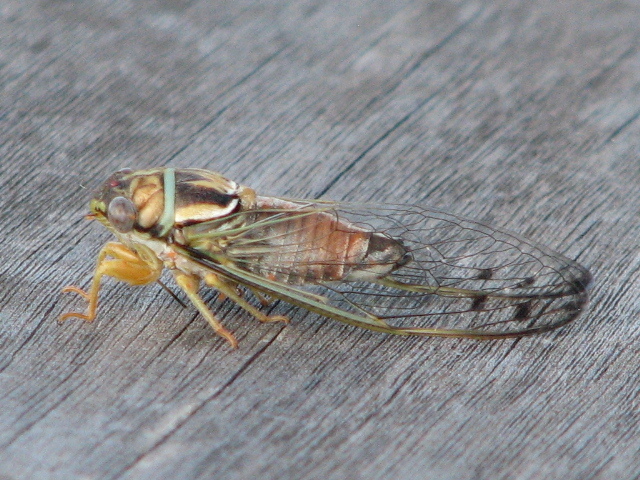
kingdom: Animalia
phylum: Arthropoda
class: Insecta
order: Hemiptera
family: Cicadidae
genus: Diceroprocta
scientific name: Diceroprocta delicata
